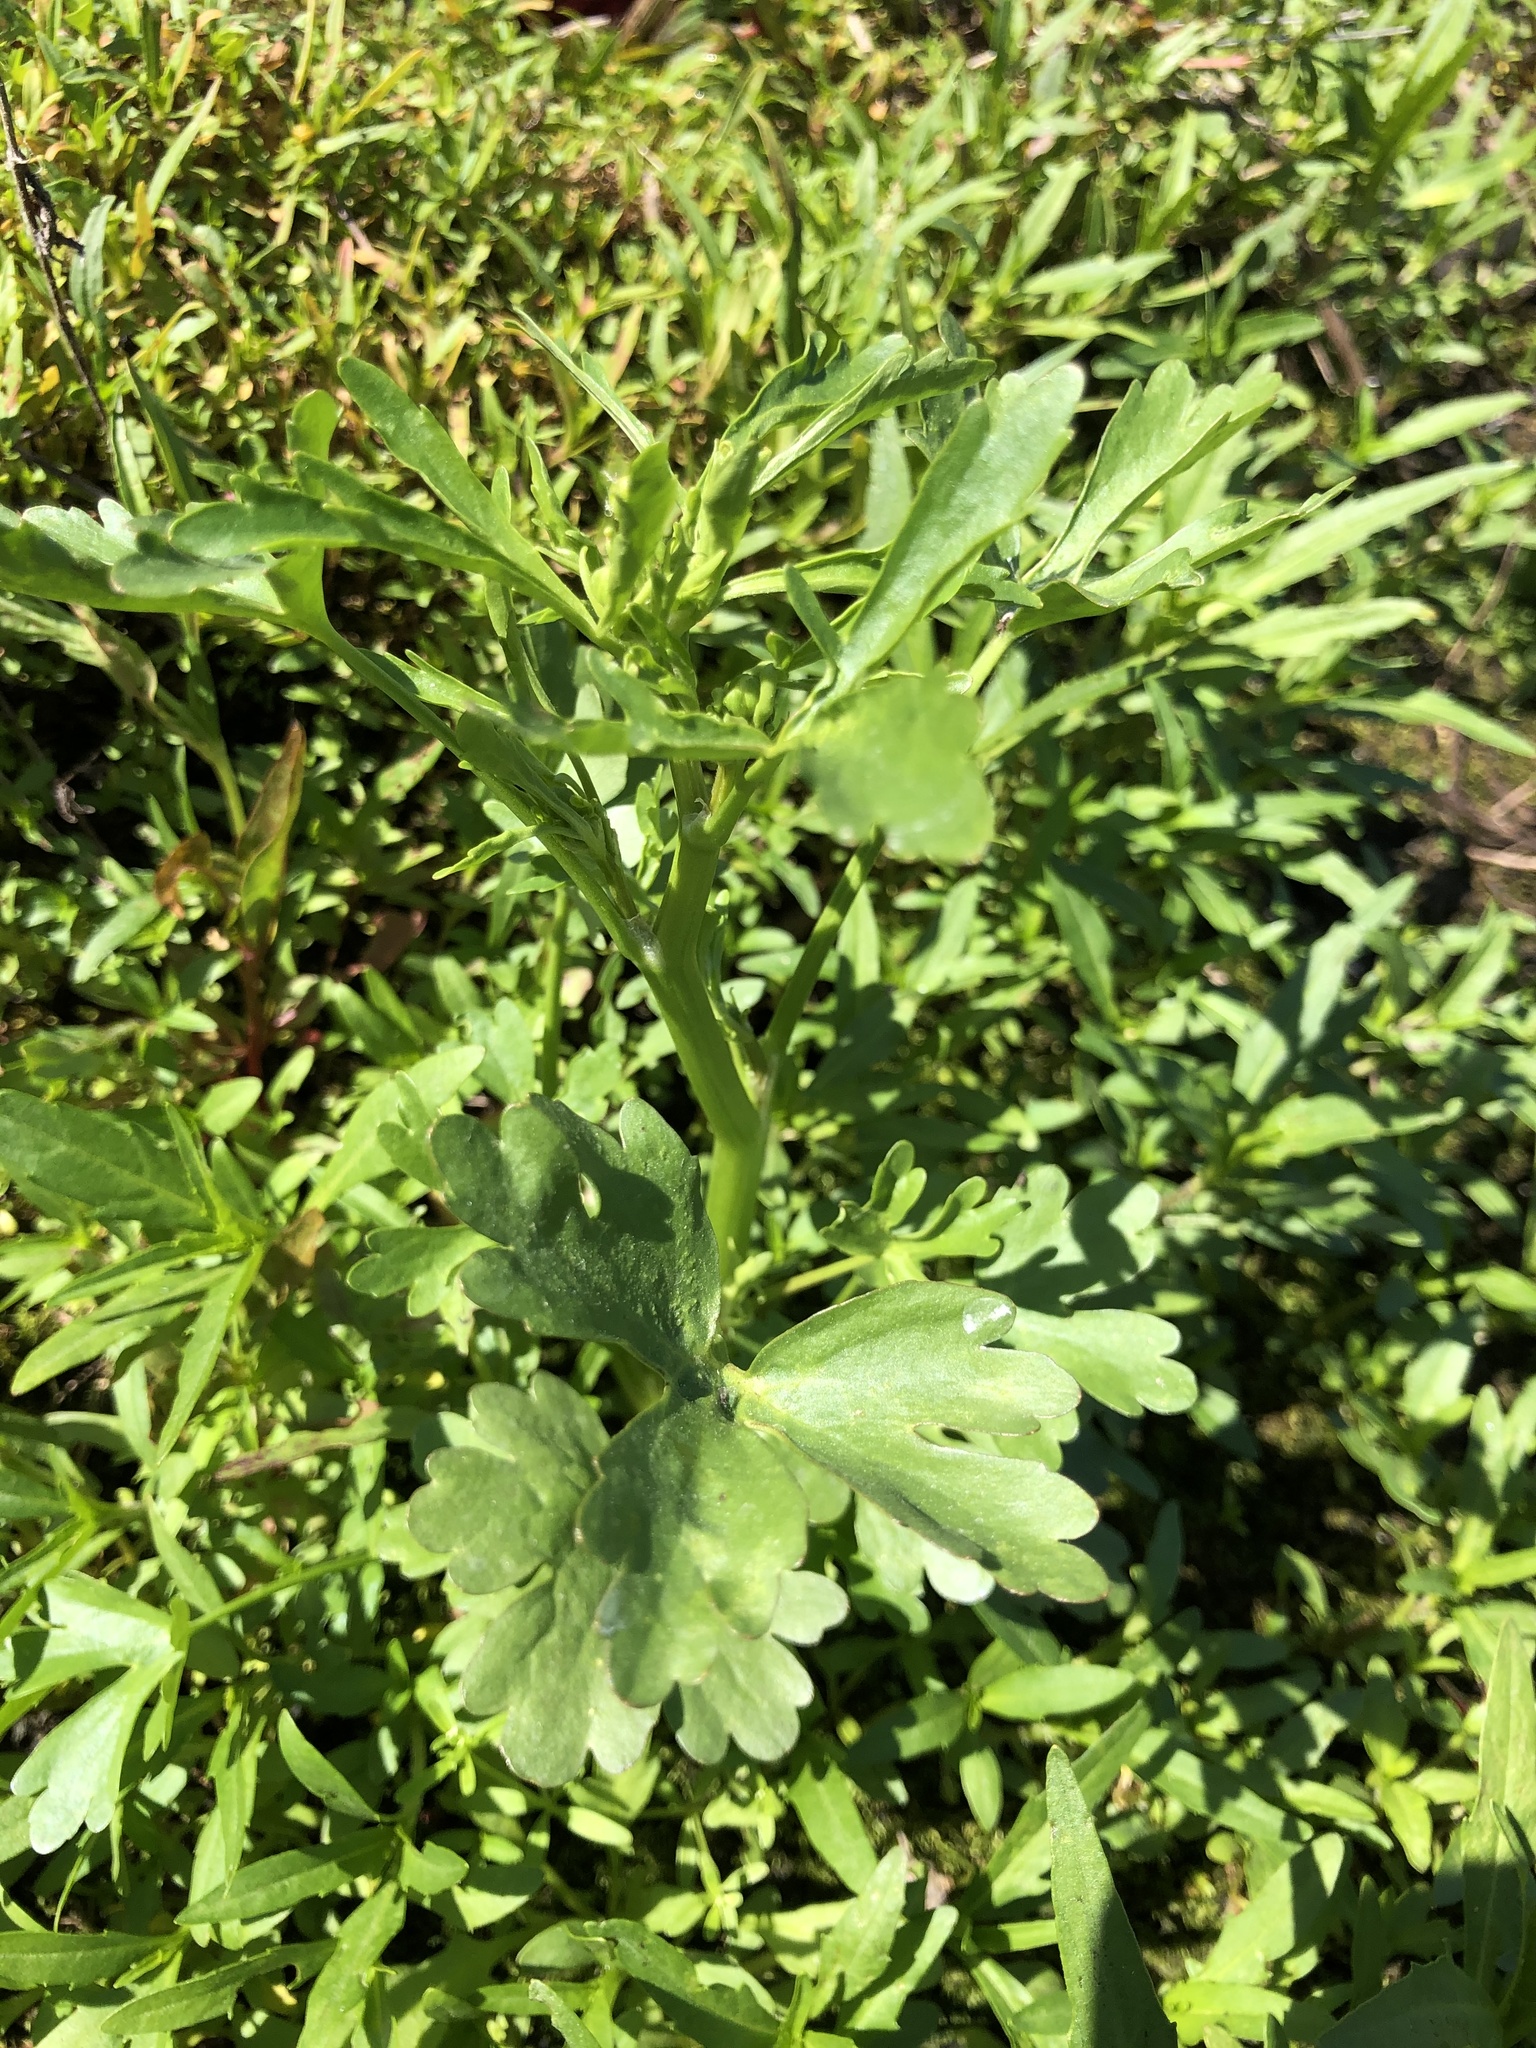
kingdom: Plantae
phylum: Tracheophyta
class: Magnoliopsida
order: Ranunculales
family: Ranunculaceae
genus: Ranunculus
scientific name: Ranunculus sceleratus
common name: Celery-leaved buttercup
